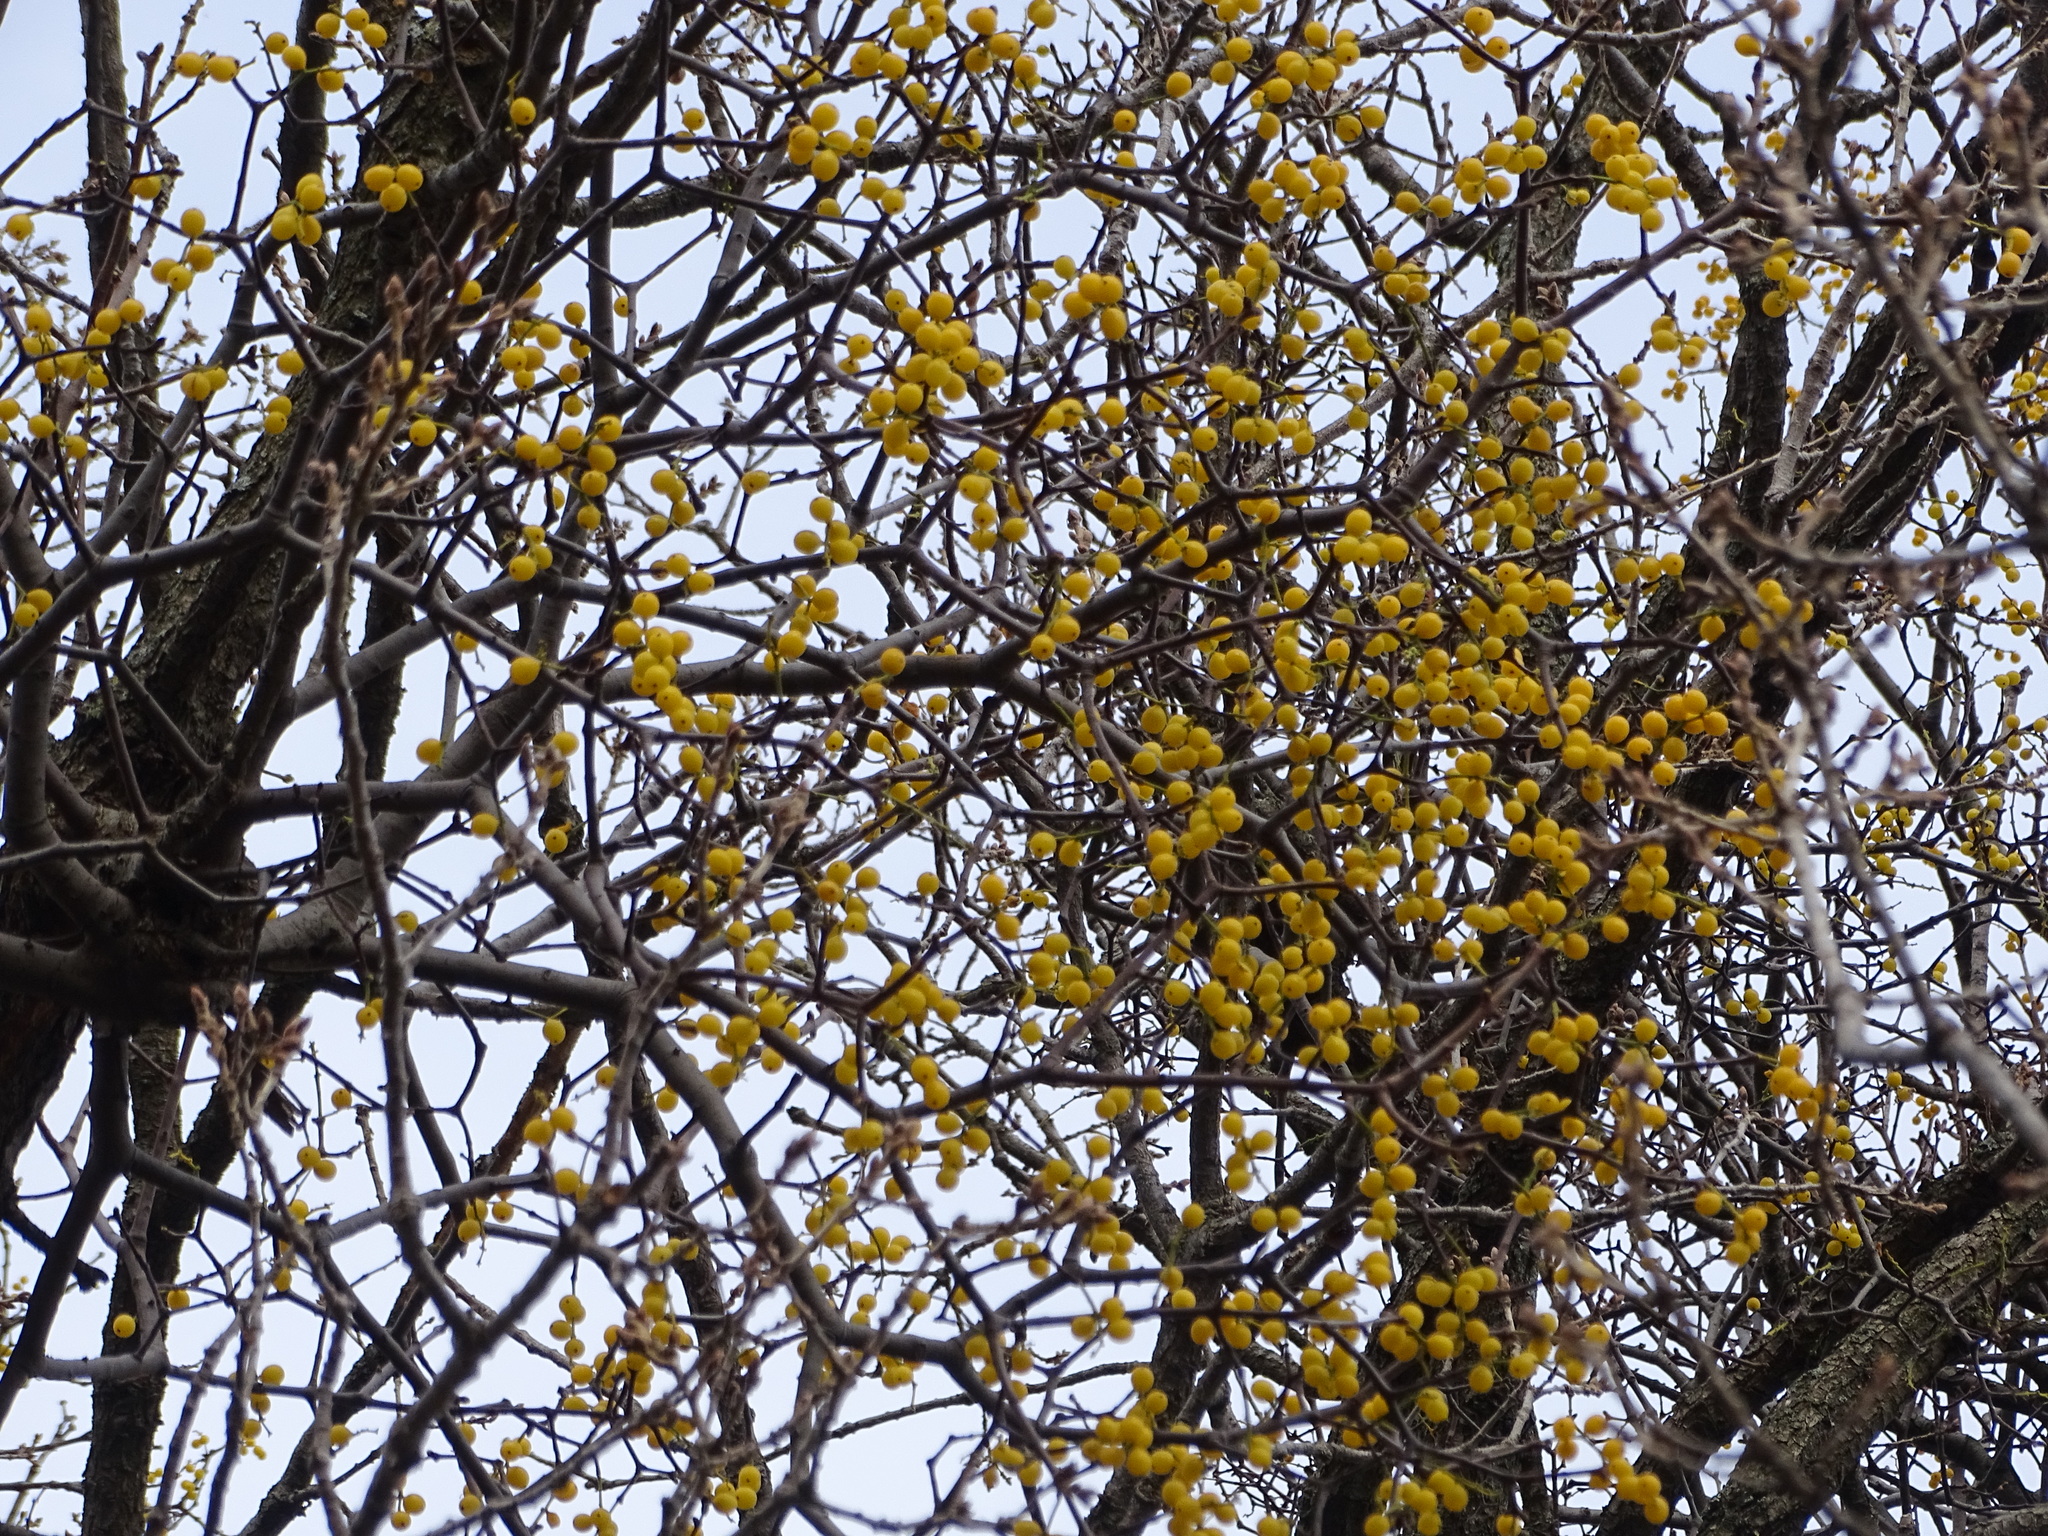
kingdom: Plantae
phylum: Tracheophyta
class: Magnoliopsida
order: Santalales
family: Loranthaceae
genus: Loranthus
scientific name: Loranthus europaeus
